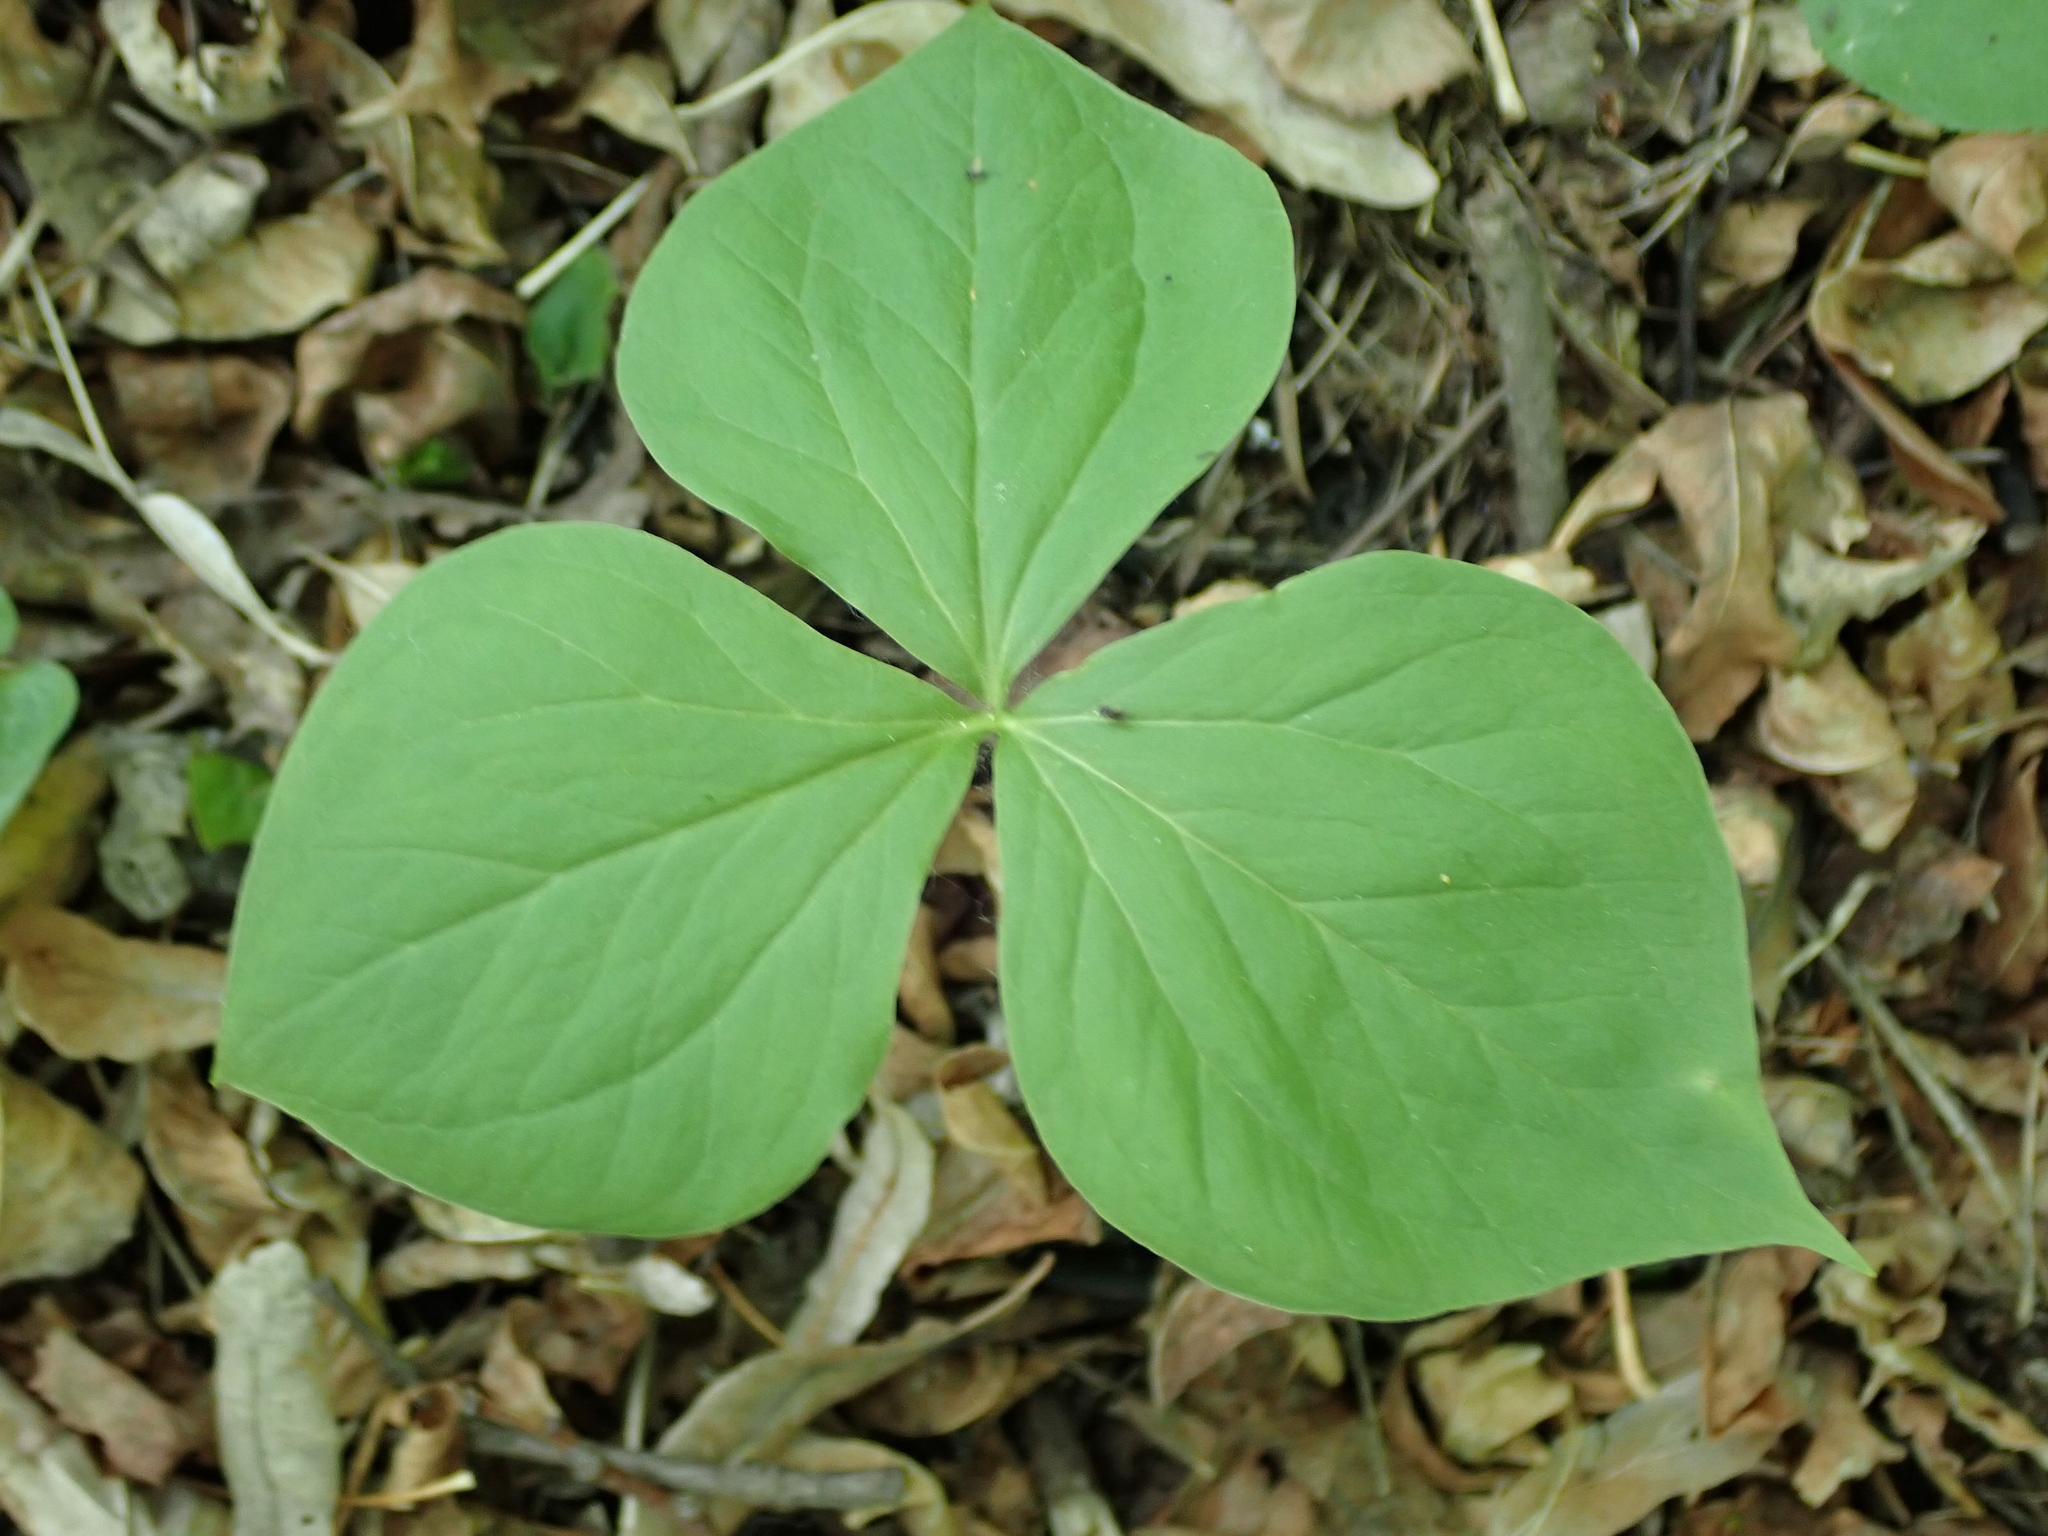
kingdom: Plantae
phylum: Tracheophyta
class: Liliopsida
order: Liliales
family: Melanthiaceae
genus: Trillium
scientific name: Trillium cernuum
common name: Nodding trillium
